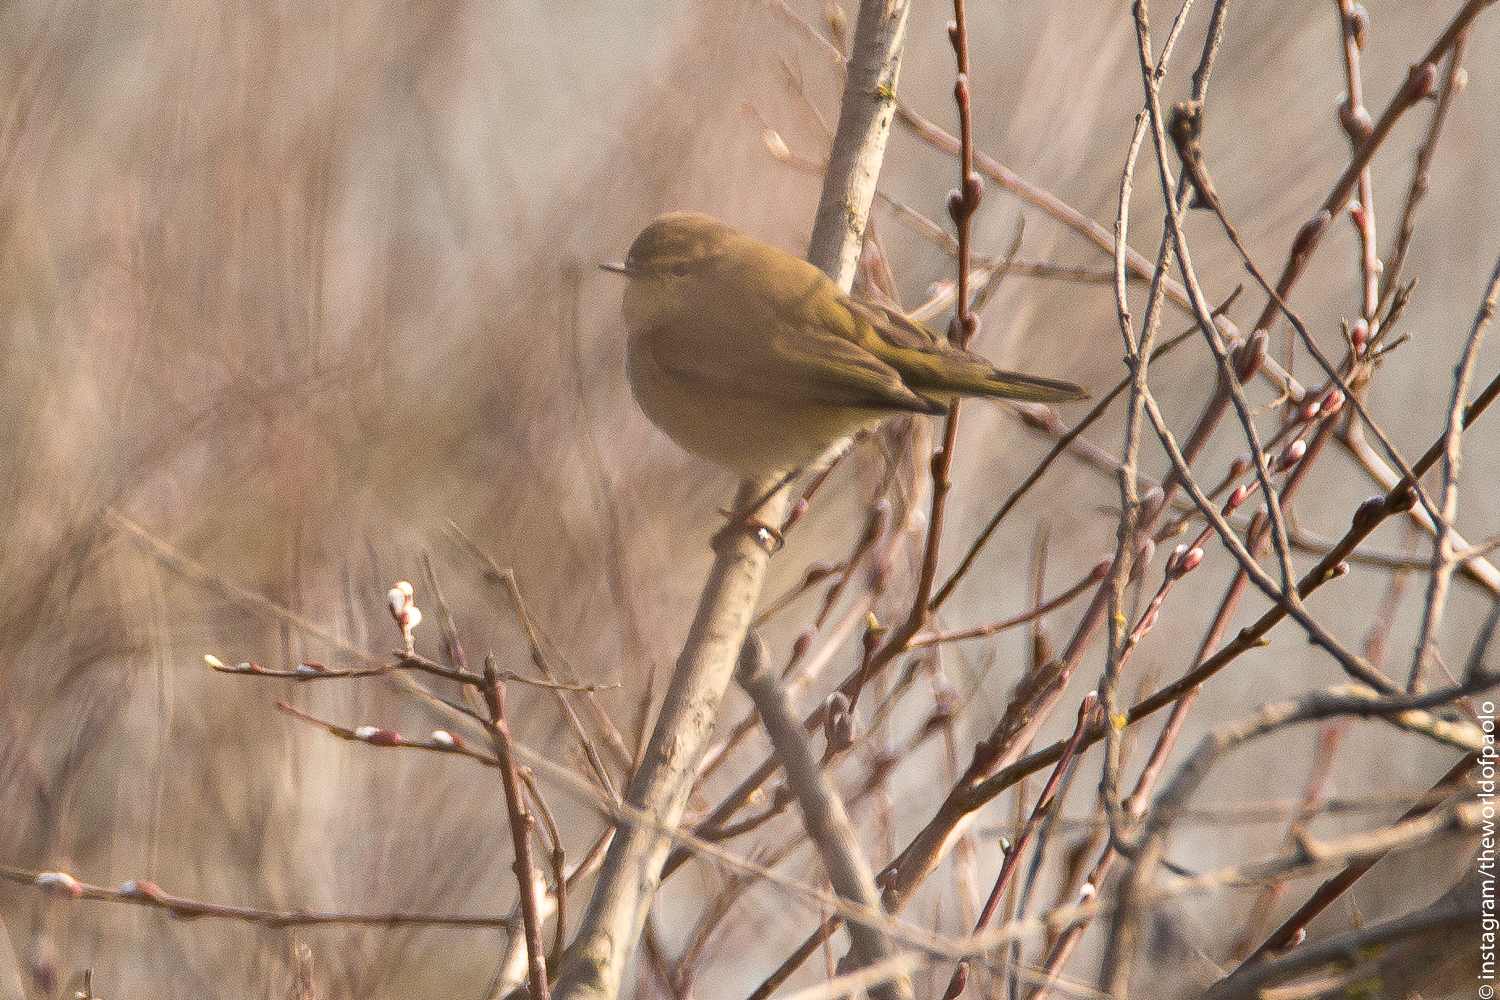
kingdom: Animalia
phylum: Chordata
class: Aves
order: Passeriformes
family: Phylloscopidae
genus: Phylloscopus
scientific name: Phylloscopus collybita
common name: Common chiffchaff
